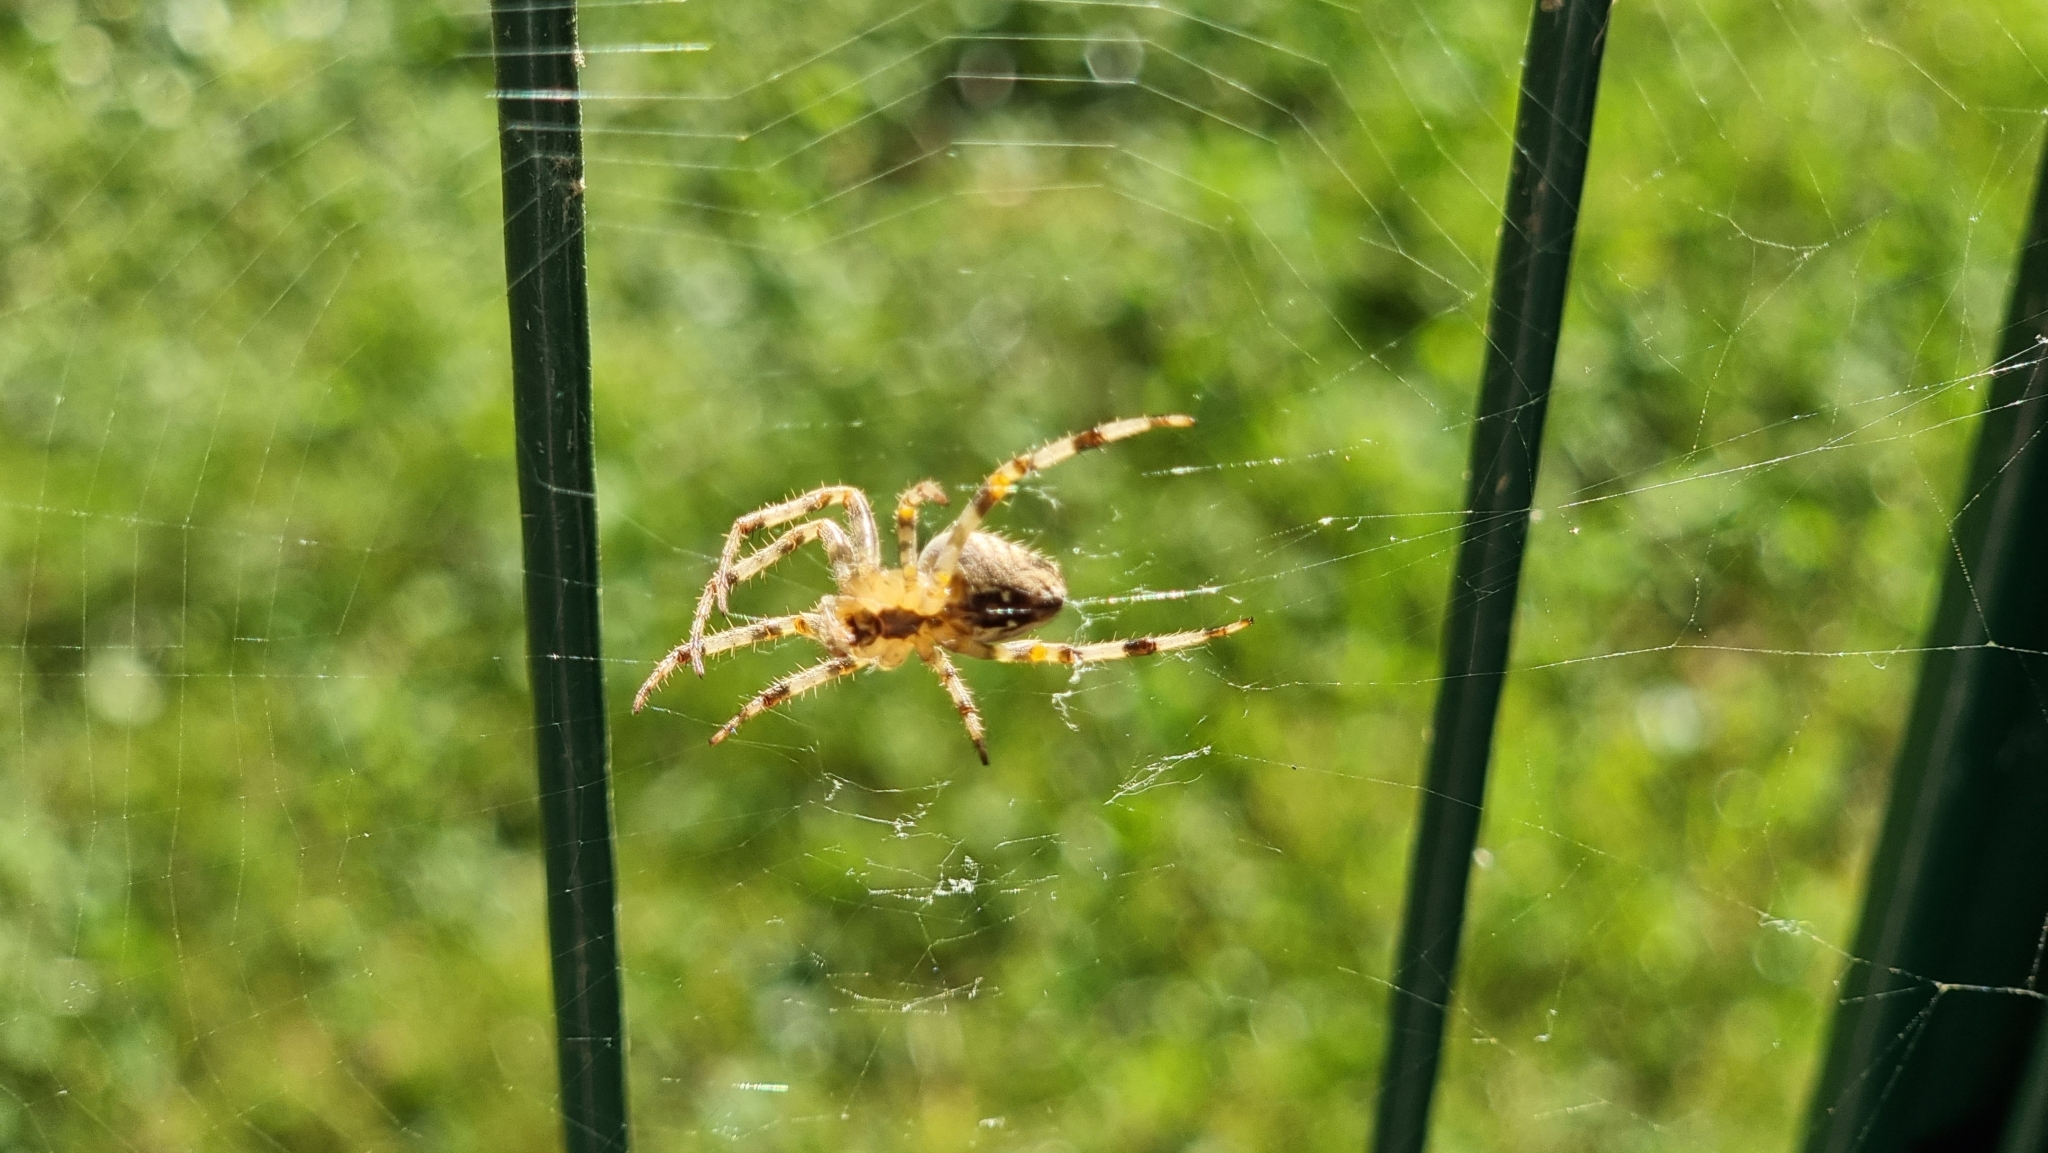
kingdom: Animalia
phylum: Arthropoda
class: Arachnida
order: Araneae
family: Araneidae
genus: Araneus
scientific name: Araneus diadematus
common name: Cross orbweaver
